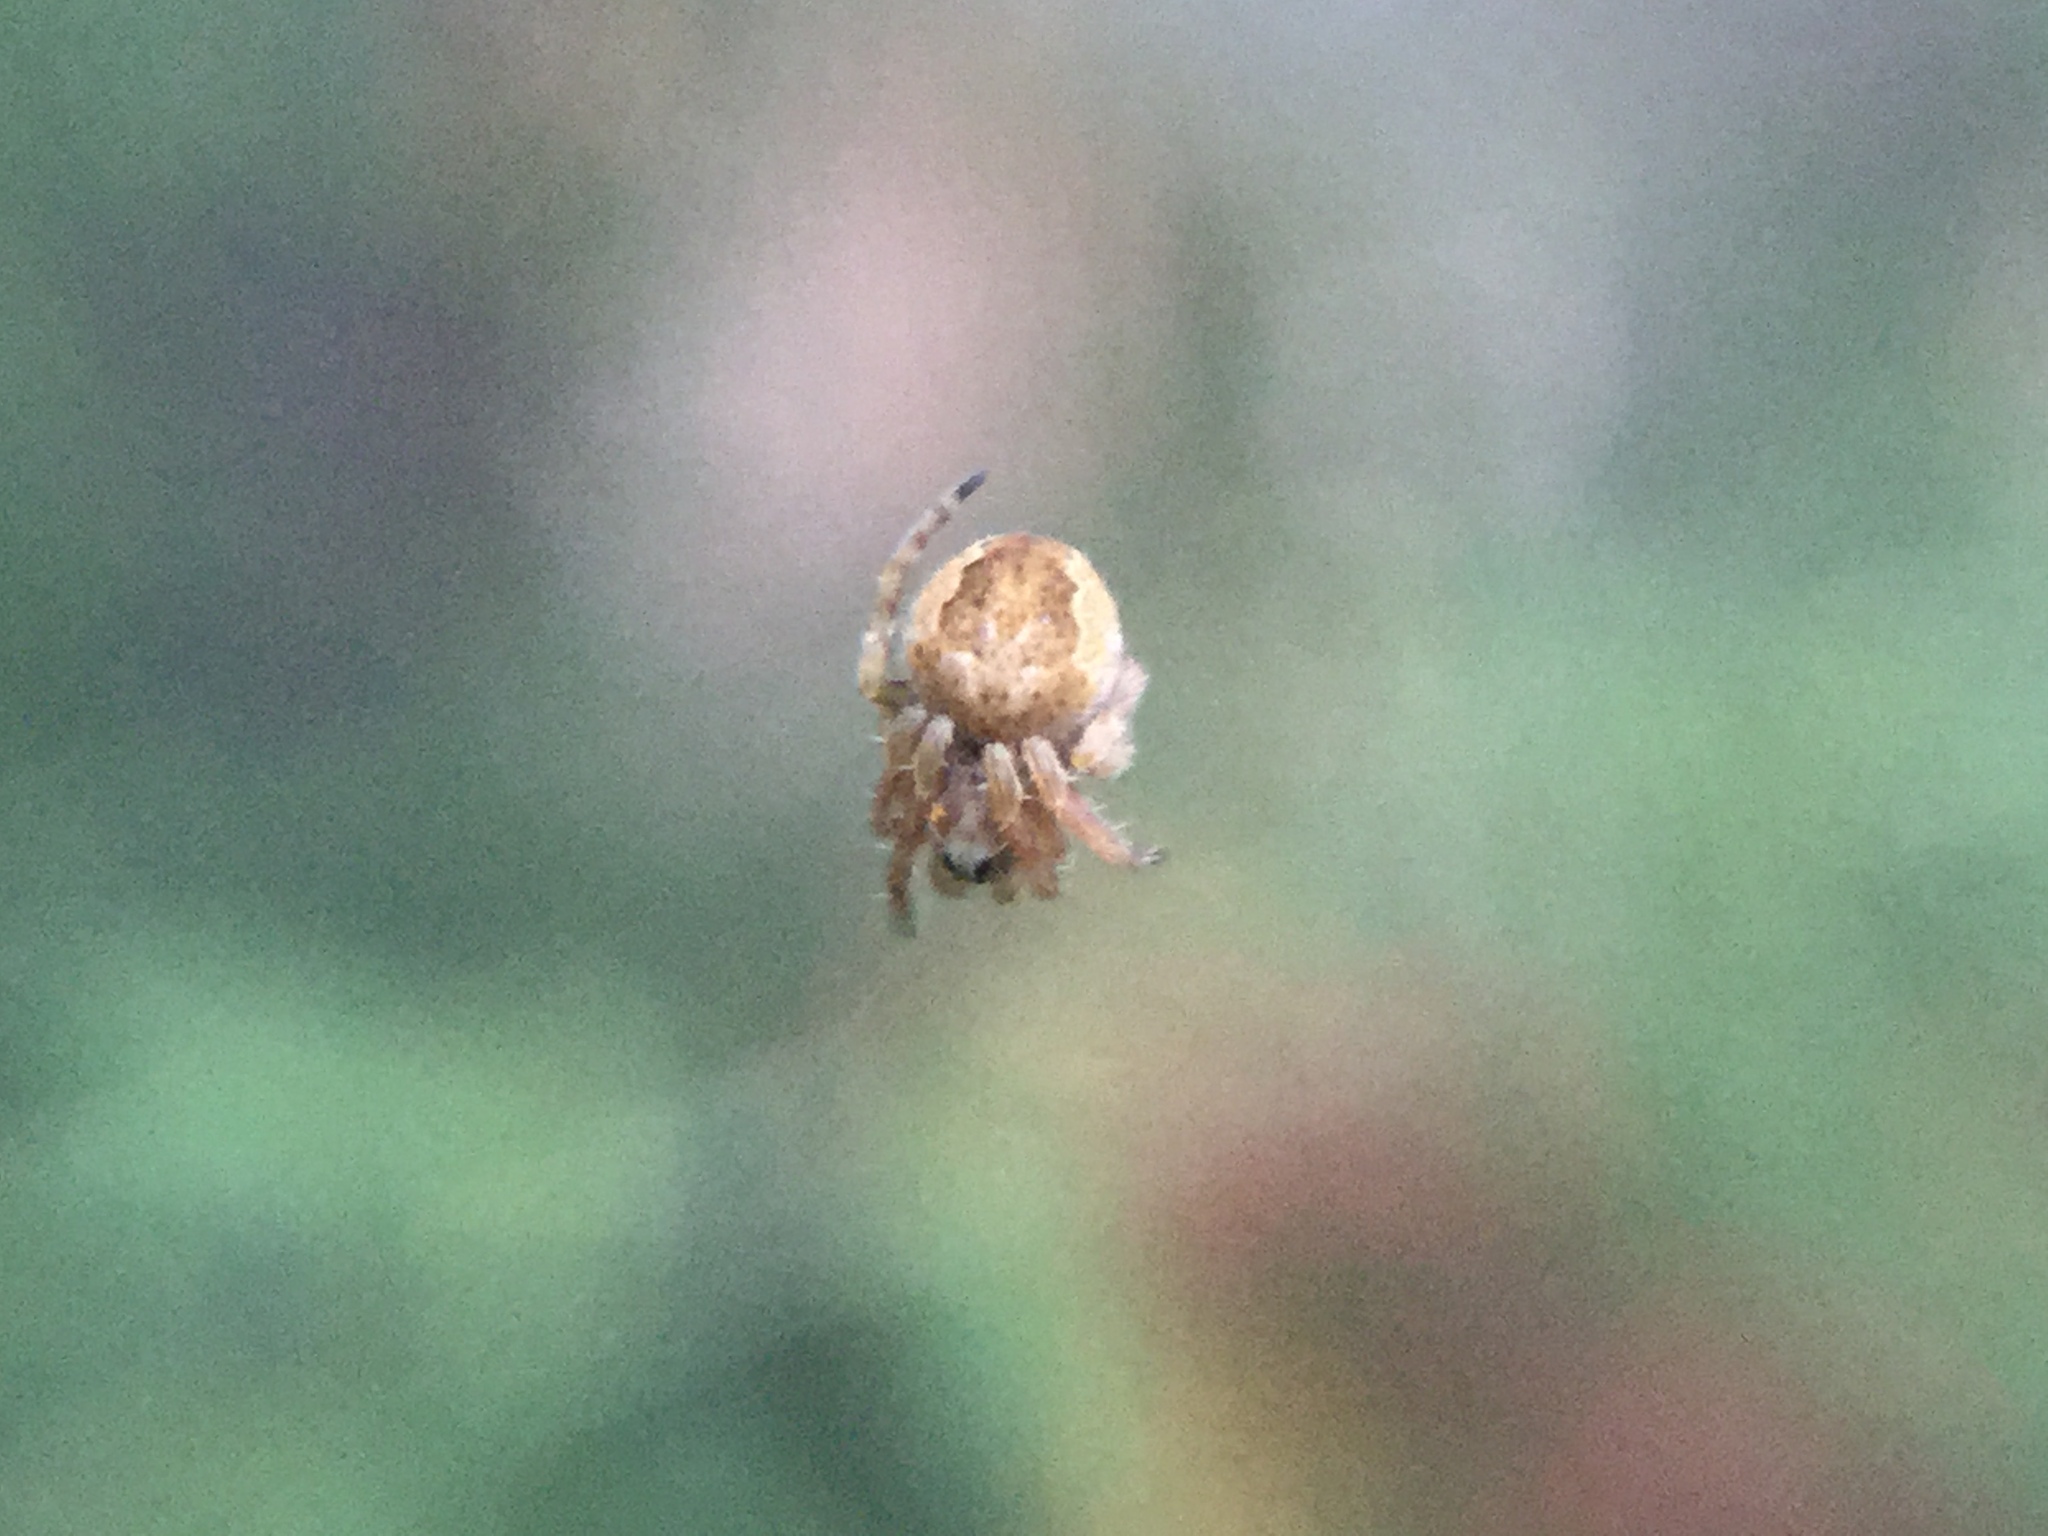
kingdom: Animalia
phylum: Arthropoda
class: Arachnida
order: Araneae
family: Araneidae
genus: Eustala
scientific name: Eustala
